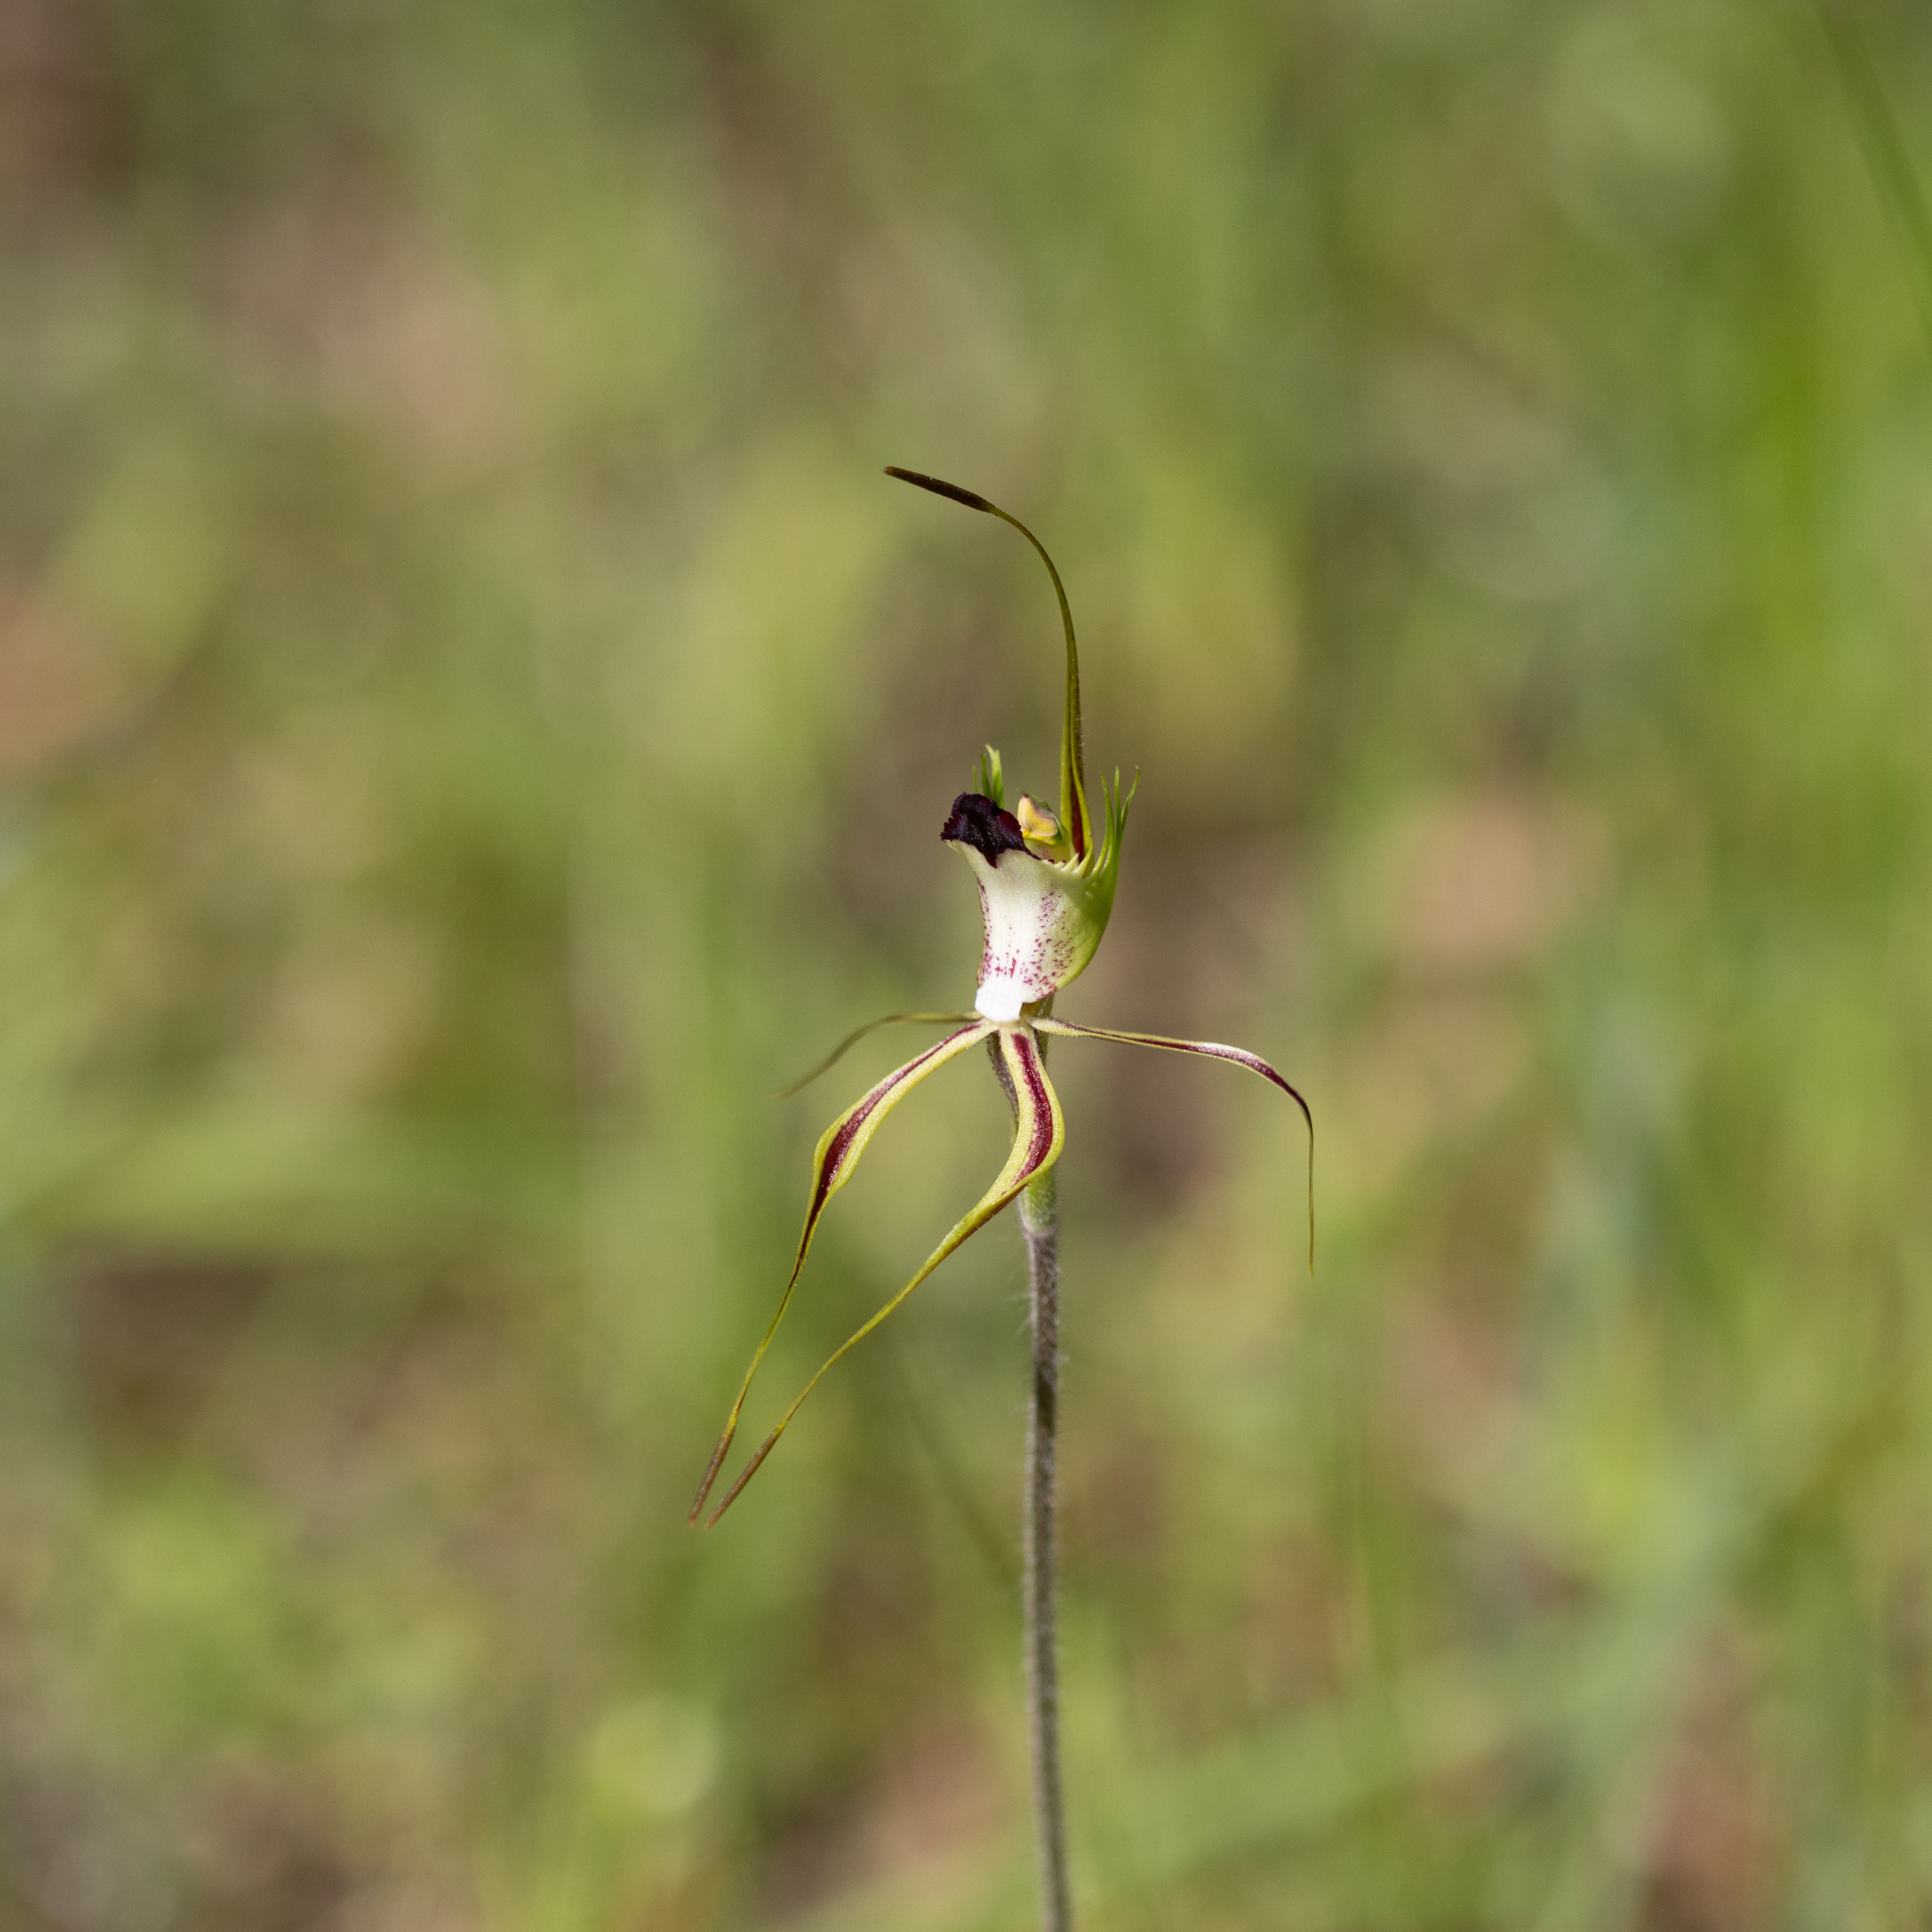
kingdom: Plantae
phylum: Tracheophyta
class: Liliopsida
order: Asparagales
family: Orchidaceae
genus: Caladenia
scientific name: Caladenia tentaculata
